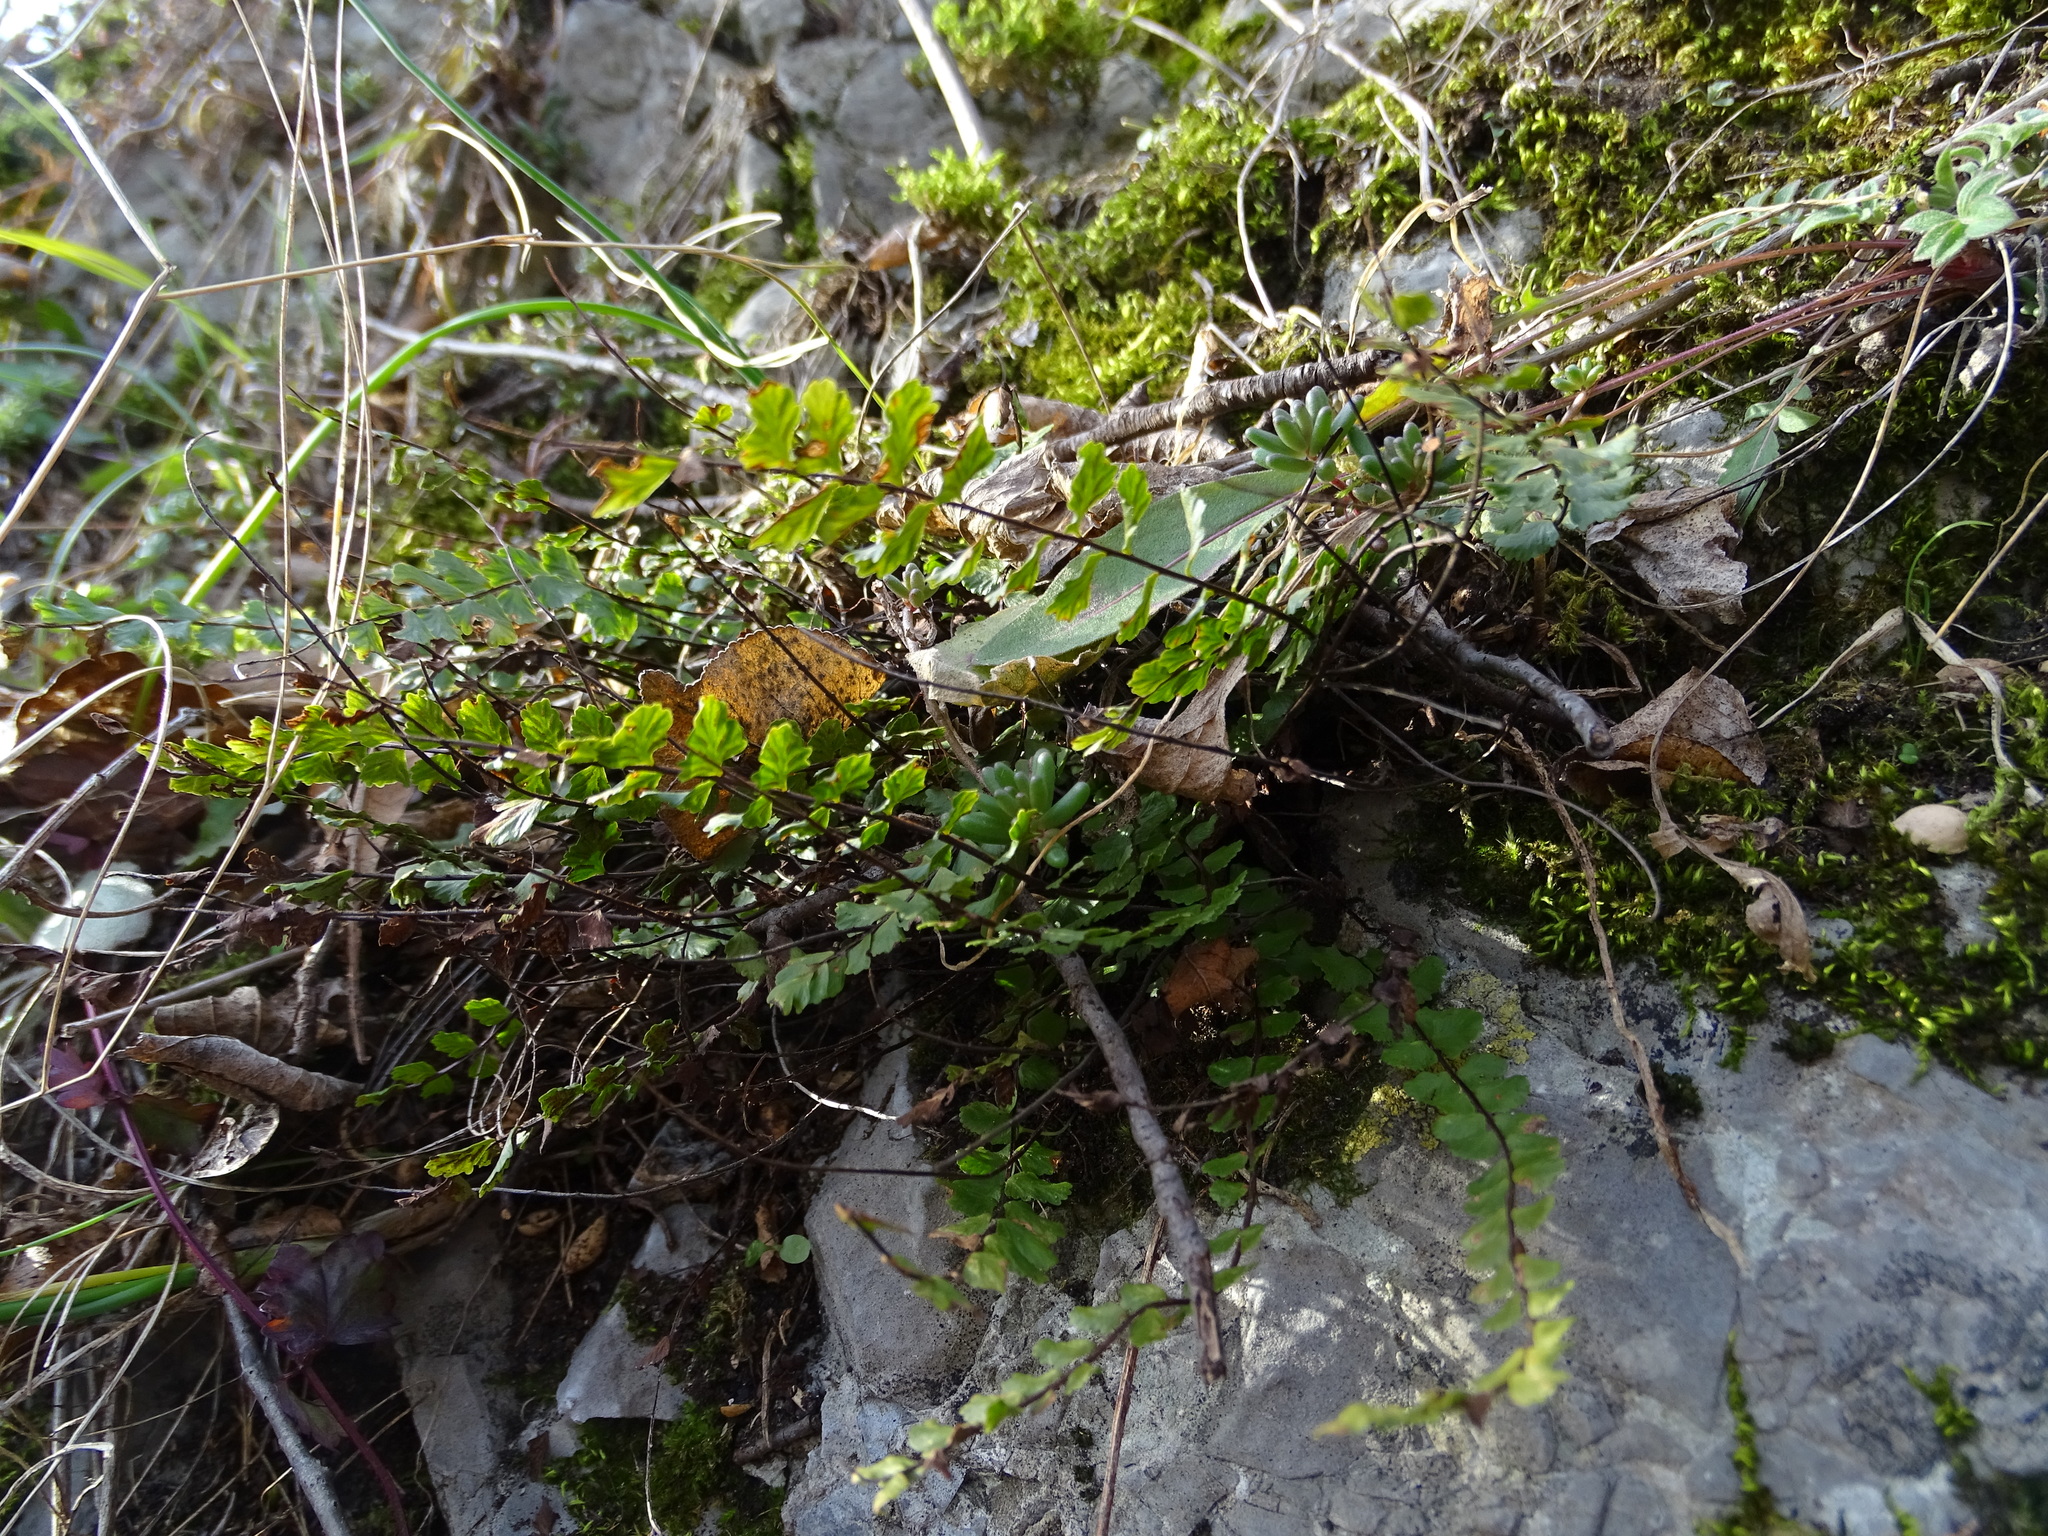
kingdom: Plantae
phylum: Tracheophyta
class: Polypodiopsida
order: Polypodiales
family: Aspleniaceae
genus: Asplenium
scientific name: Asplenium trichomanes
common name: Maidenhair spleenwort
